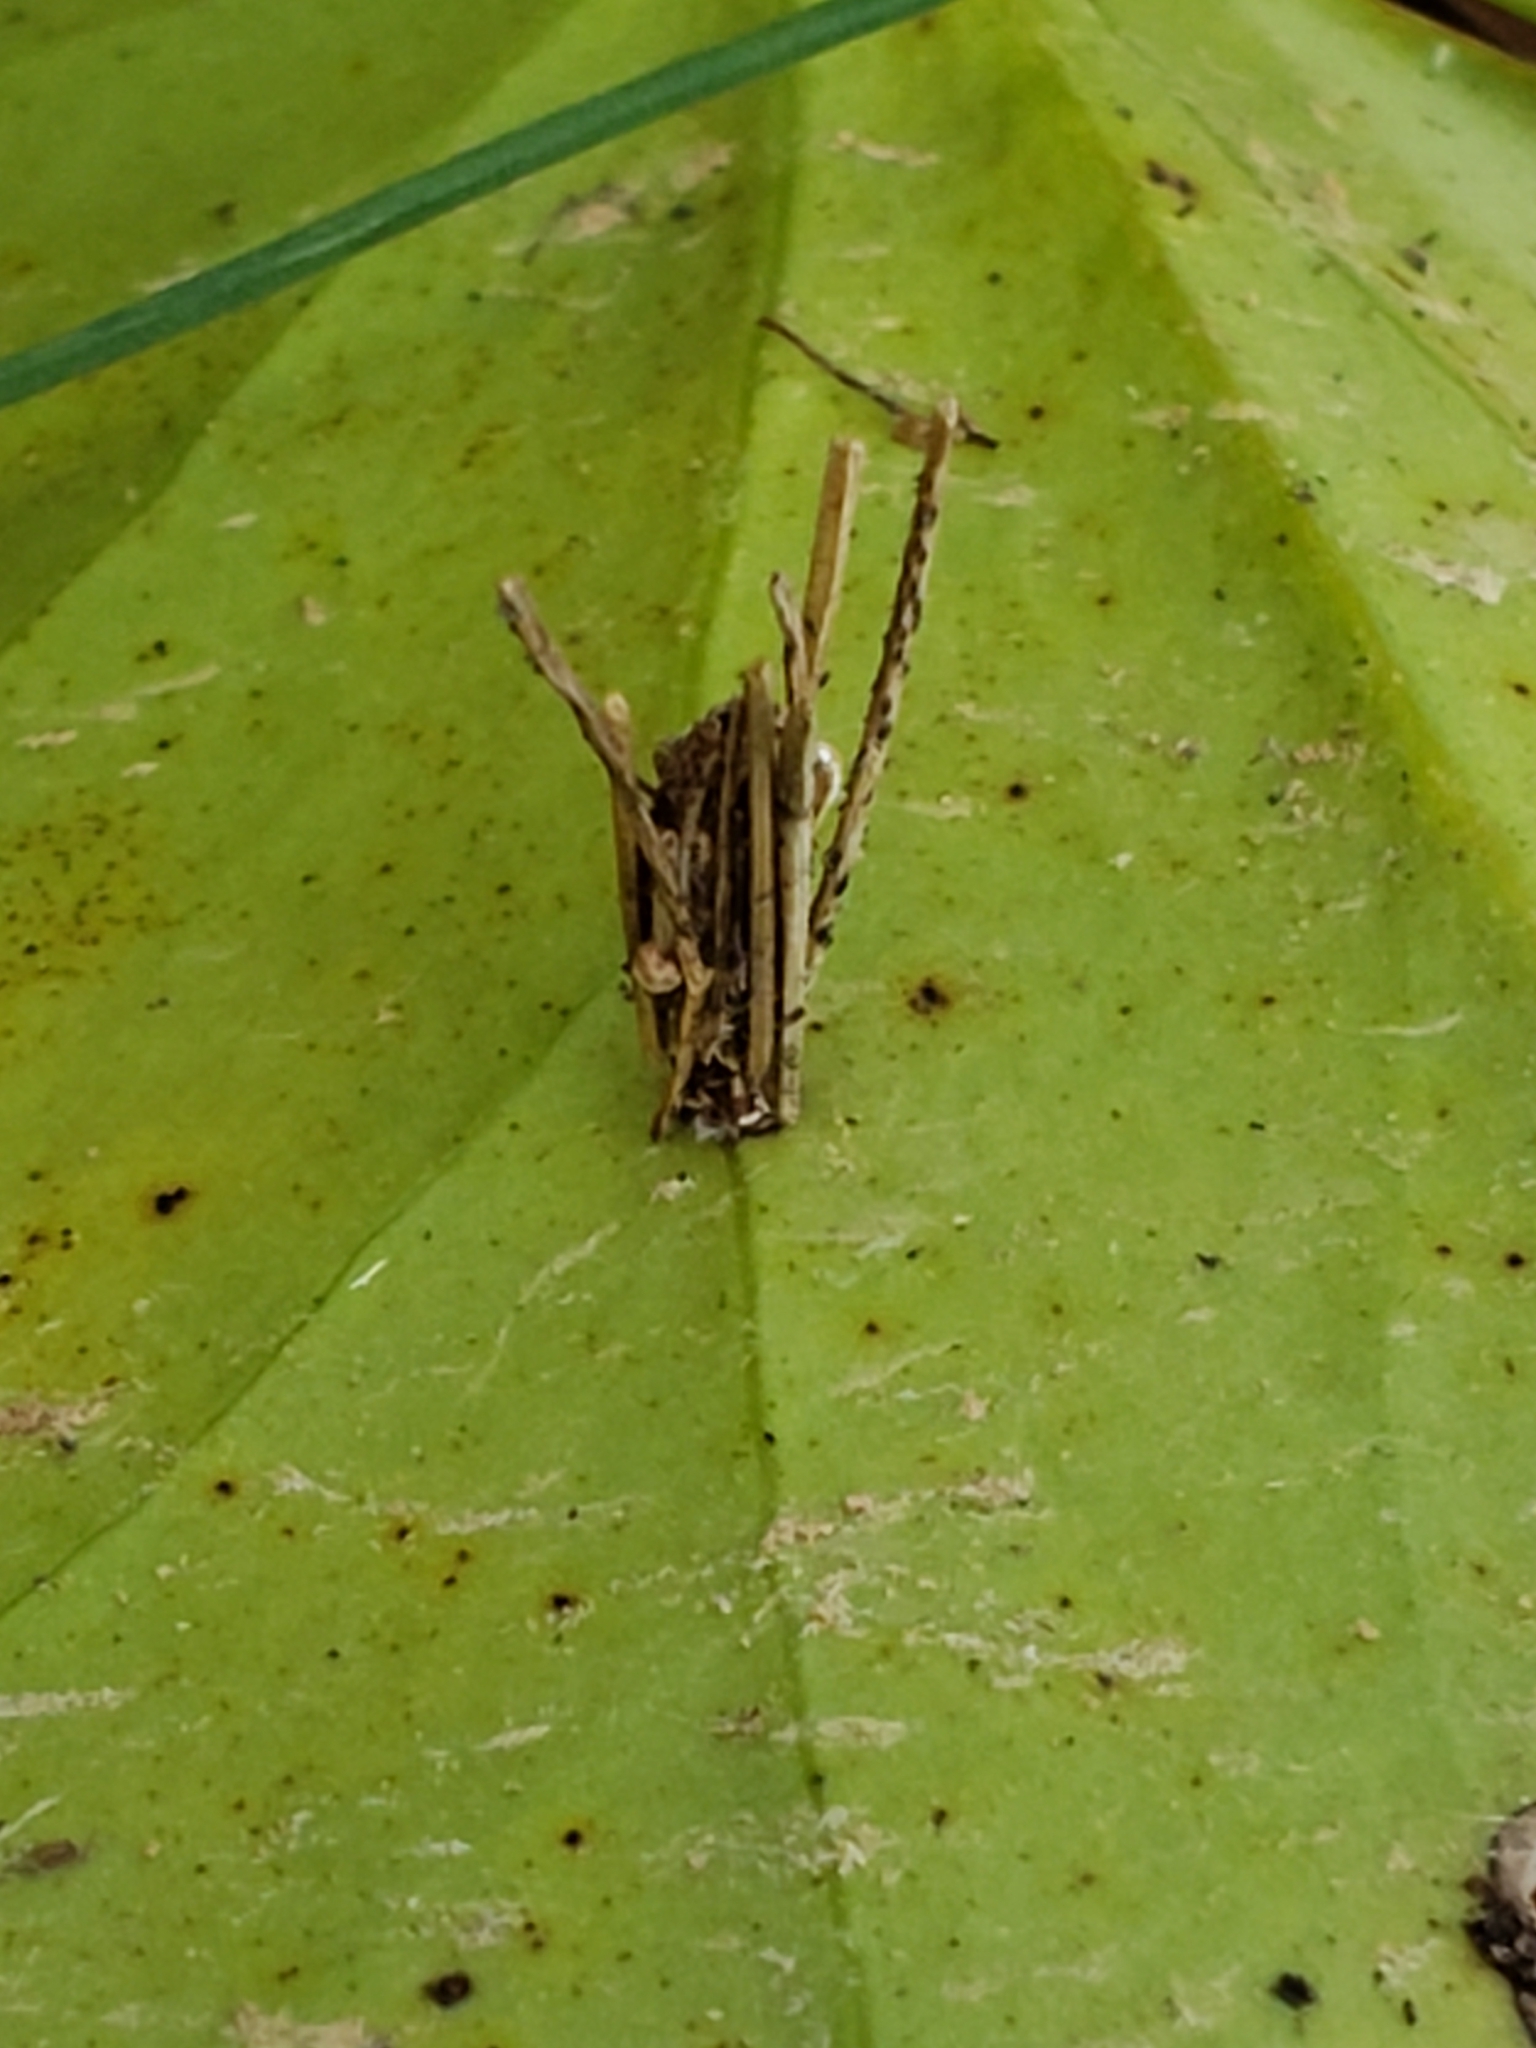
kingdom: Animalia
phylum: Arthropoda
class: Insecta
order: Lepidoptera
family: Psychidae
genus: Psyche
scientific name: Psyche casta
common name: Common sweep
